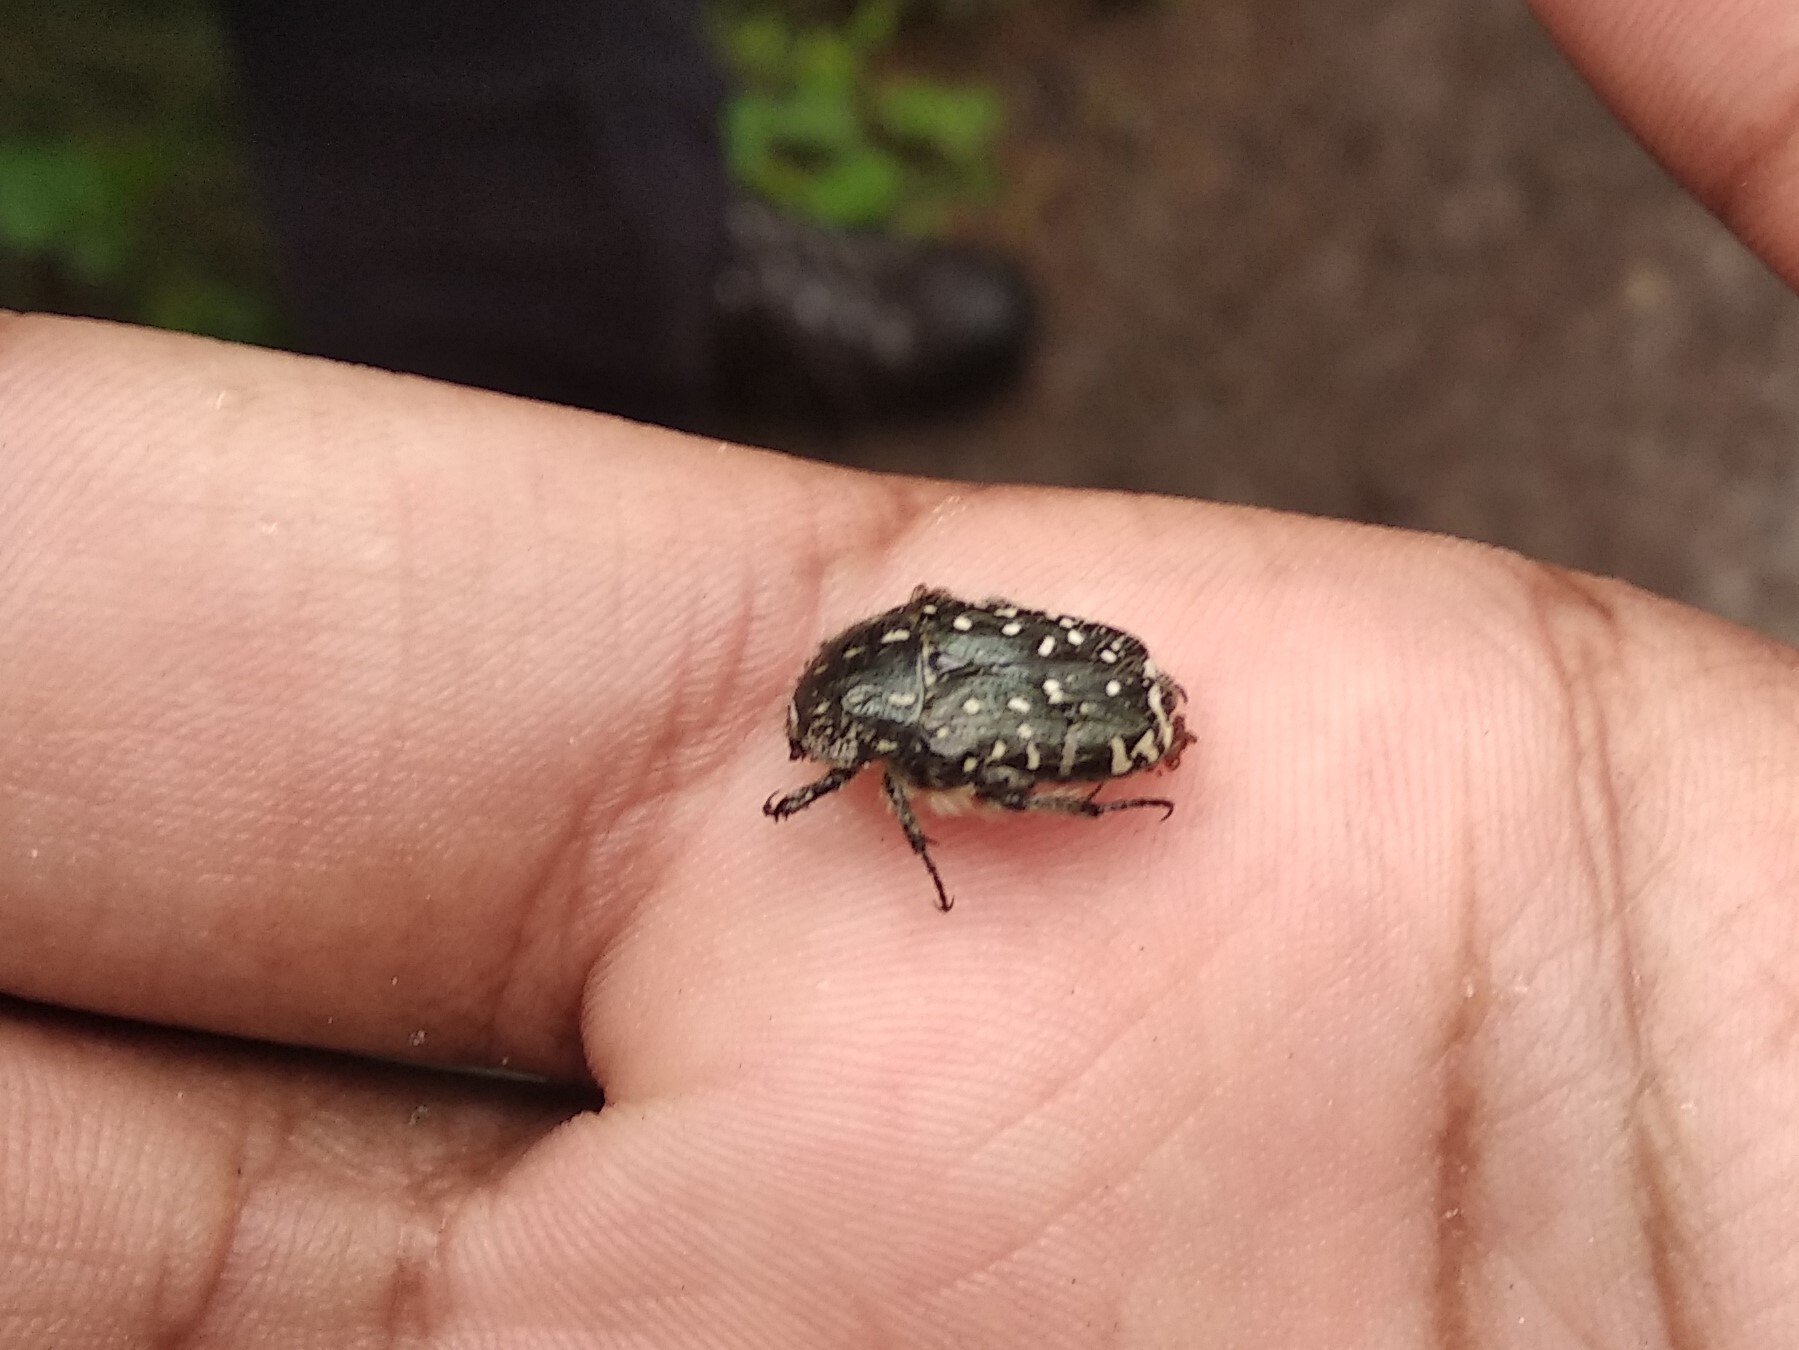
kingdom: Animalia
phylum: Arthropoda
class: Insecta
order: Coleoptera
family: Scarabaeidae
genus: Oxythyrea
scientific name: Oxythyrea funesta
